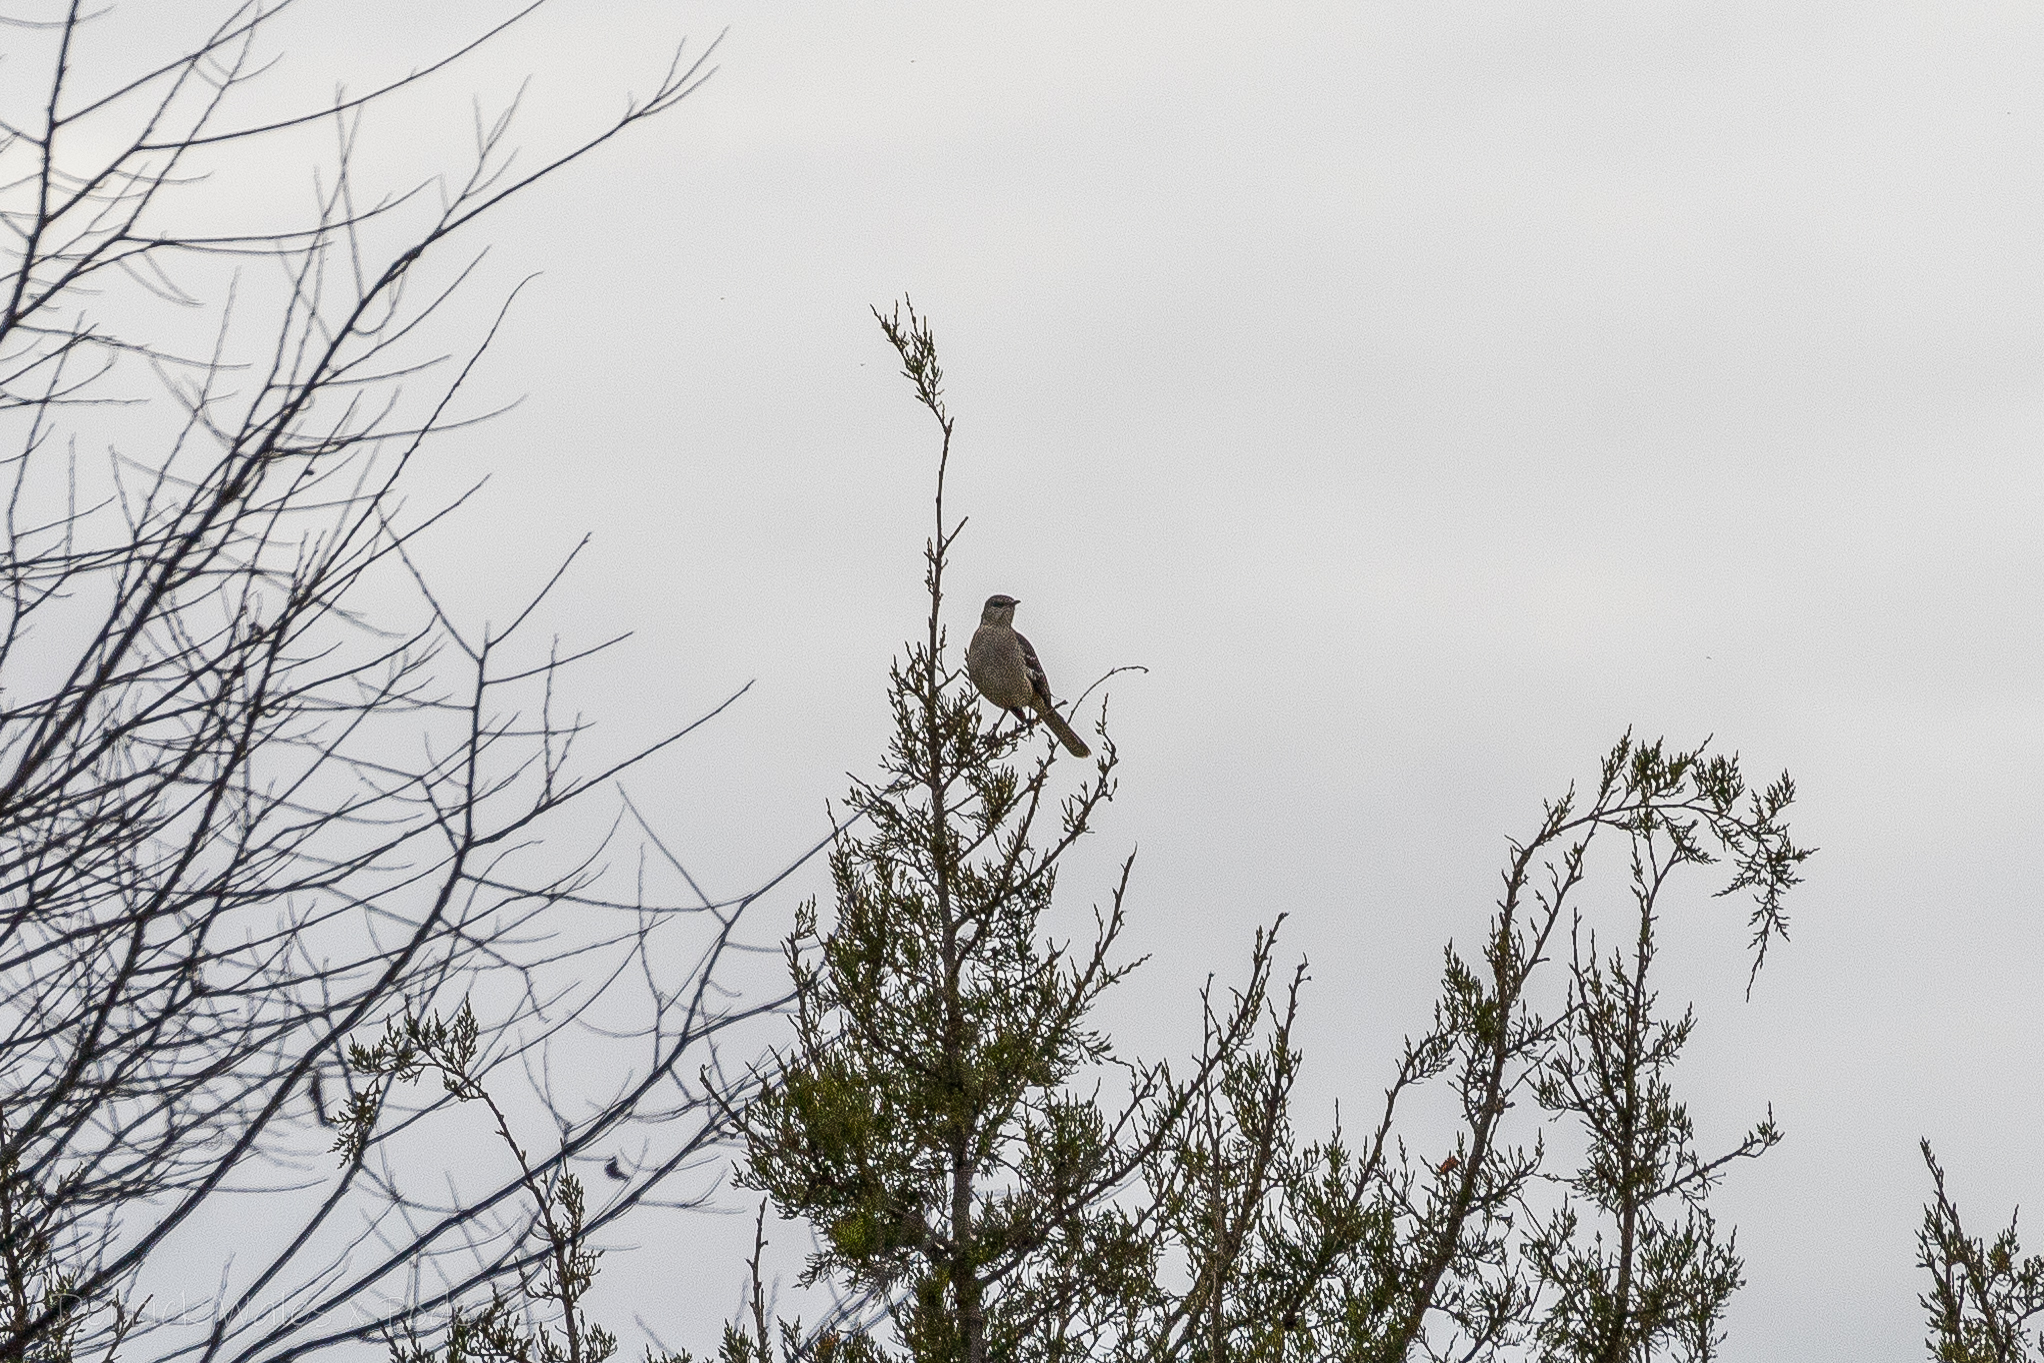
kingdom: Animalia
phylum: Chordata
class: Aves
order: Passeriformes
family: Mimidae
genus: Mimus
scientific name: Mimus polyglottos
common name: Northern mockingbird
